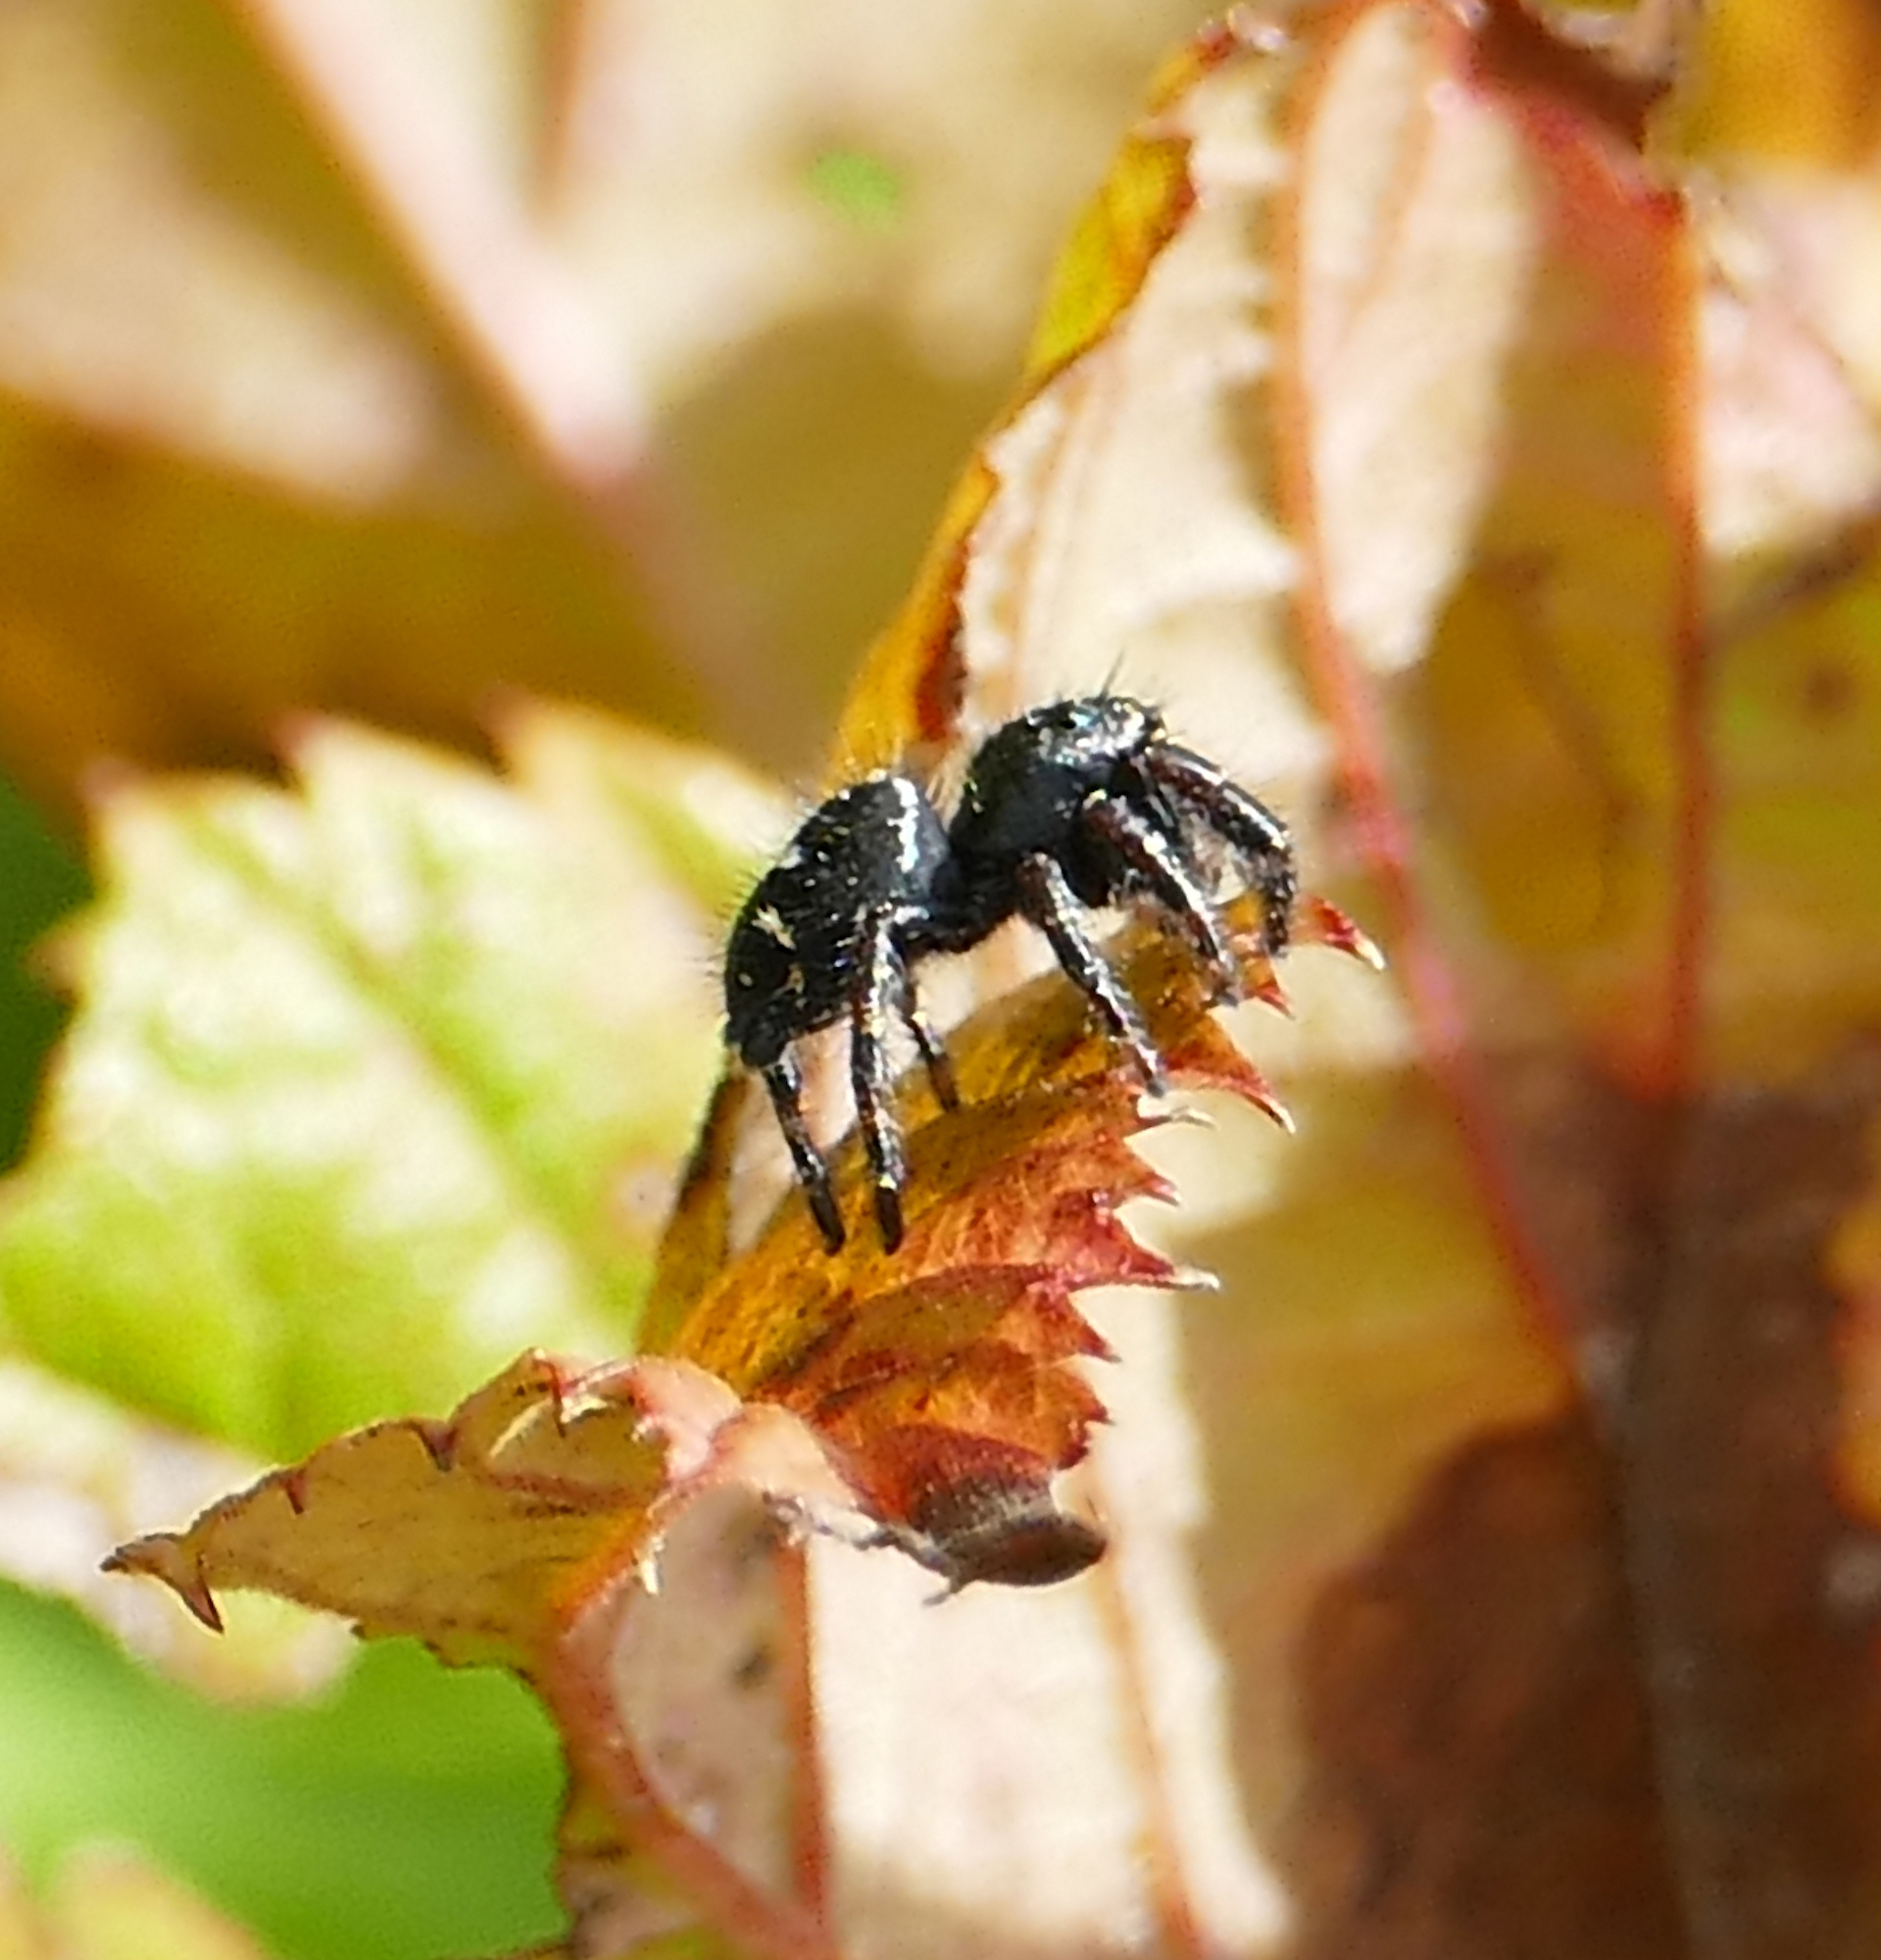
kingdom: Animalia
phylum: Arthropoda
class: Arachnida
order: Araneae
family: Salticidae
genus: Phidippus
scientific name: Phidippus audax
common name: Bold jumper
